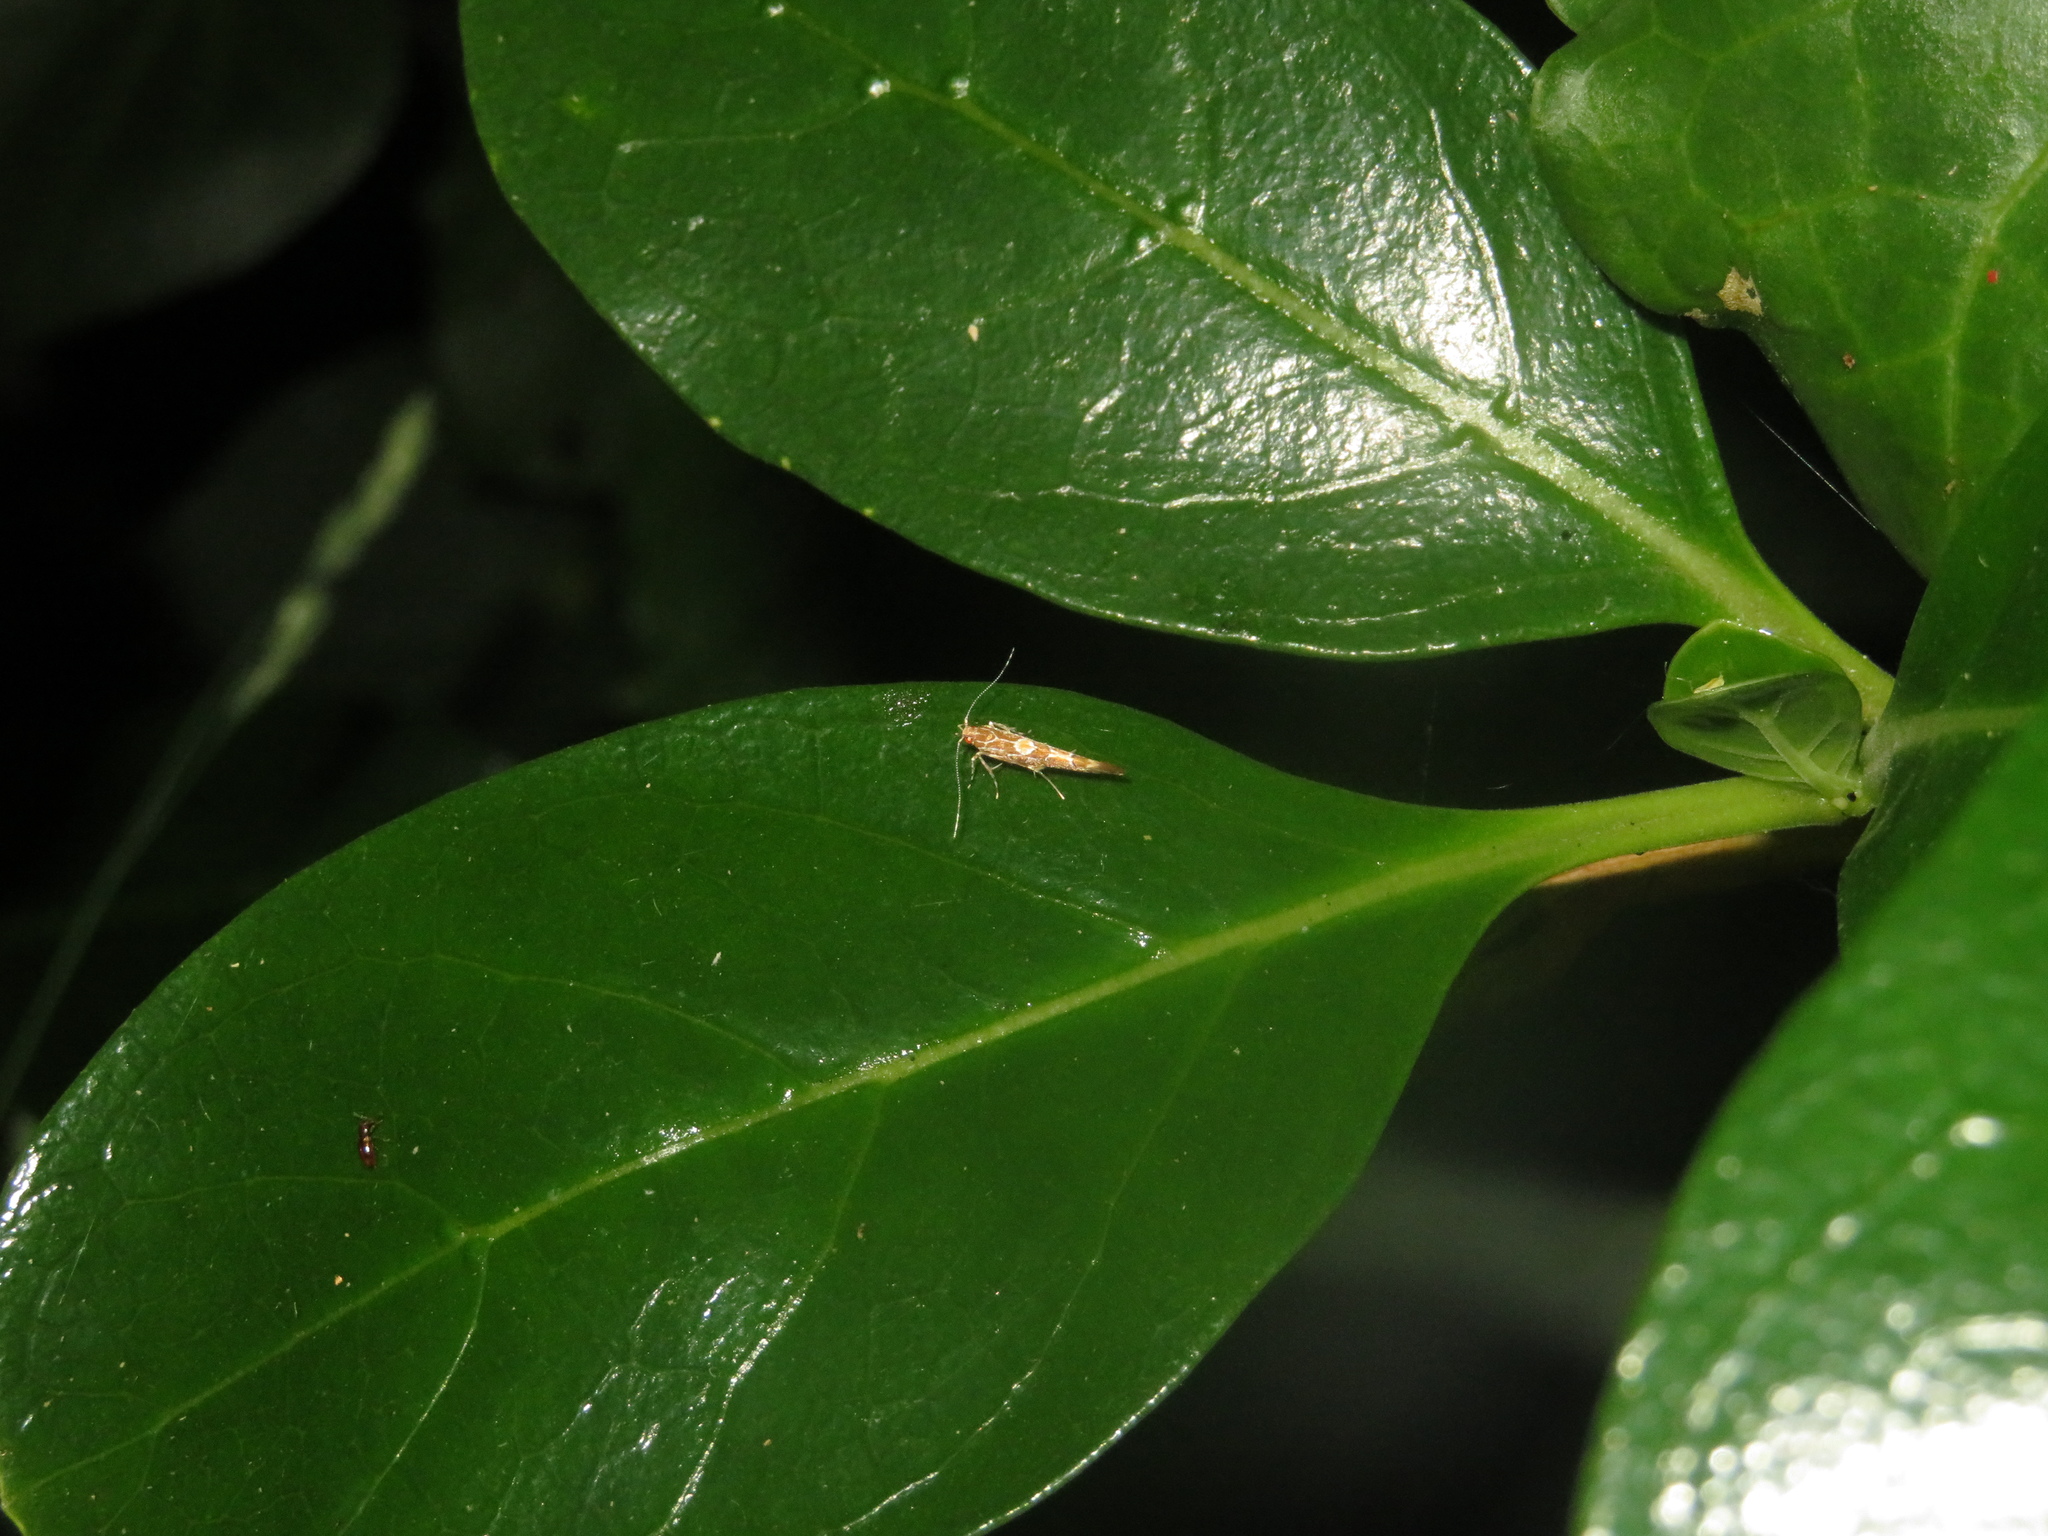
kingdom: Animalia
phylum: Arthropoda
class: Insecta
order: Lepidoptera
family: Cosmopterigidae
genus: Pyroderces
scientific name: Pyroderces apparitella
